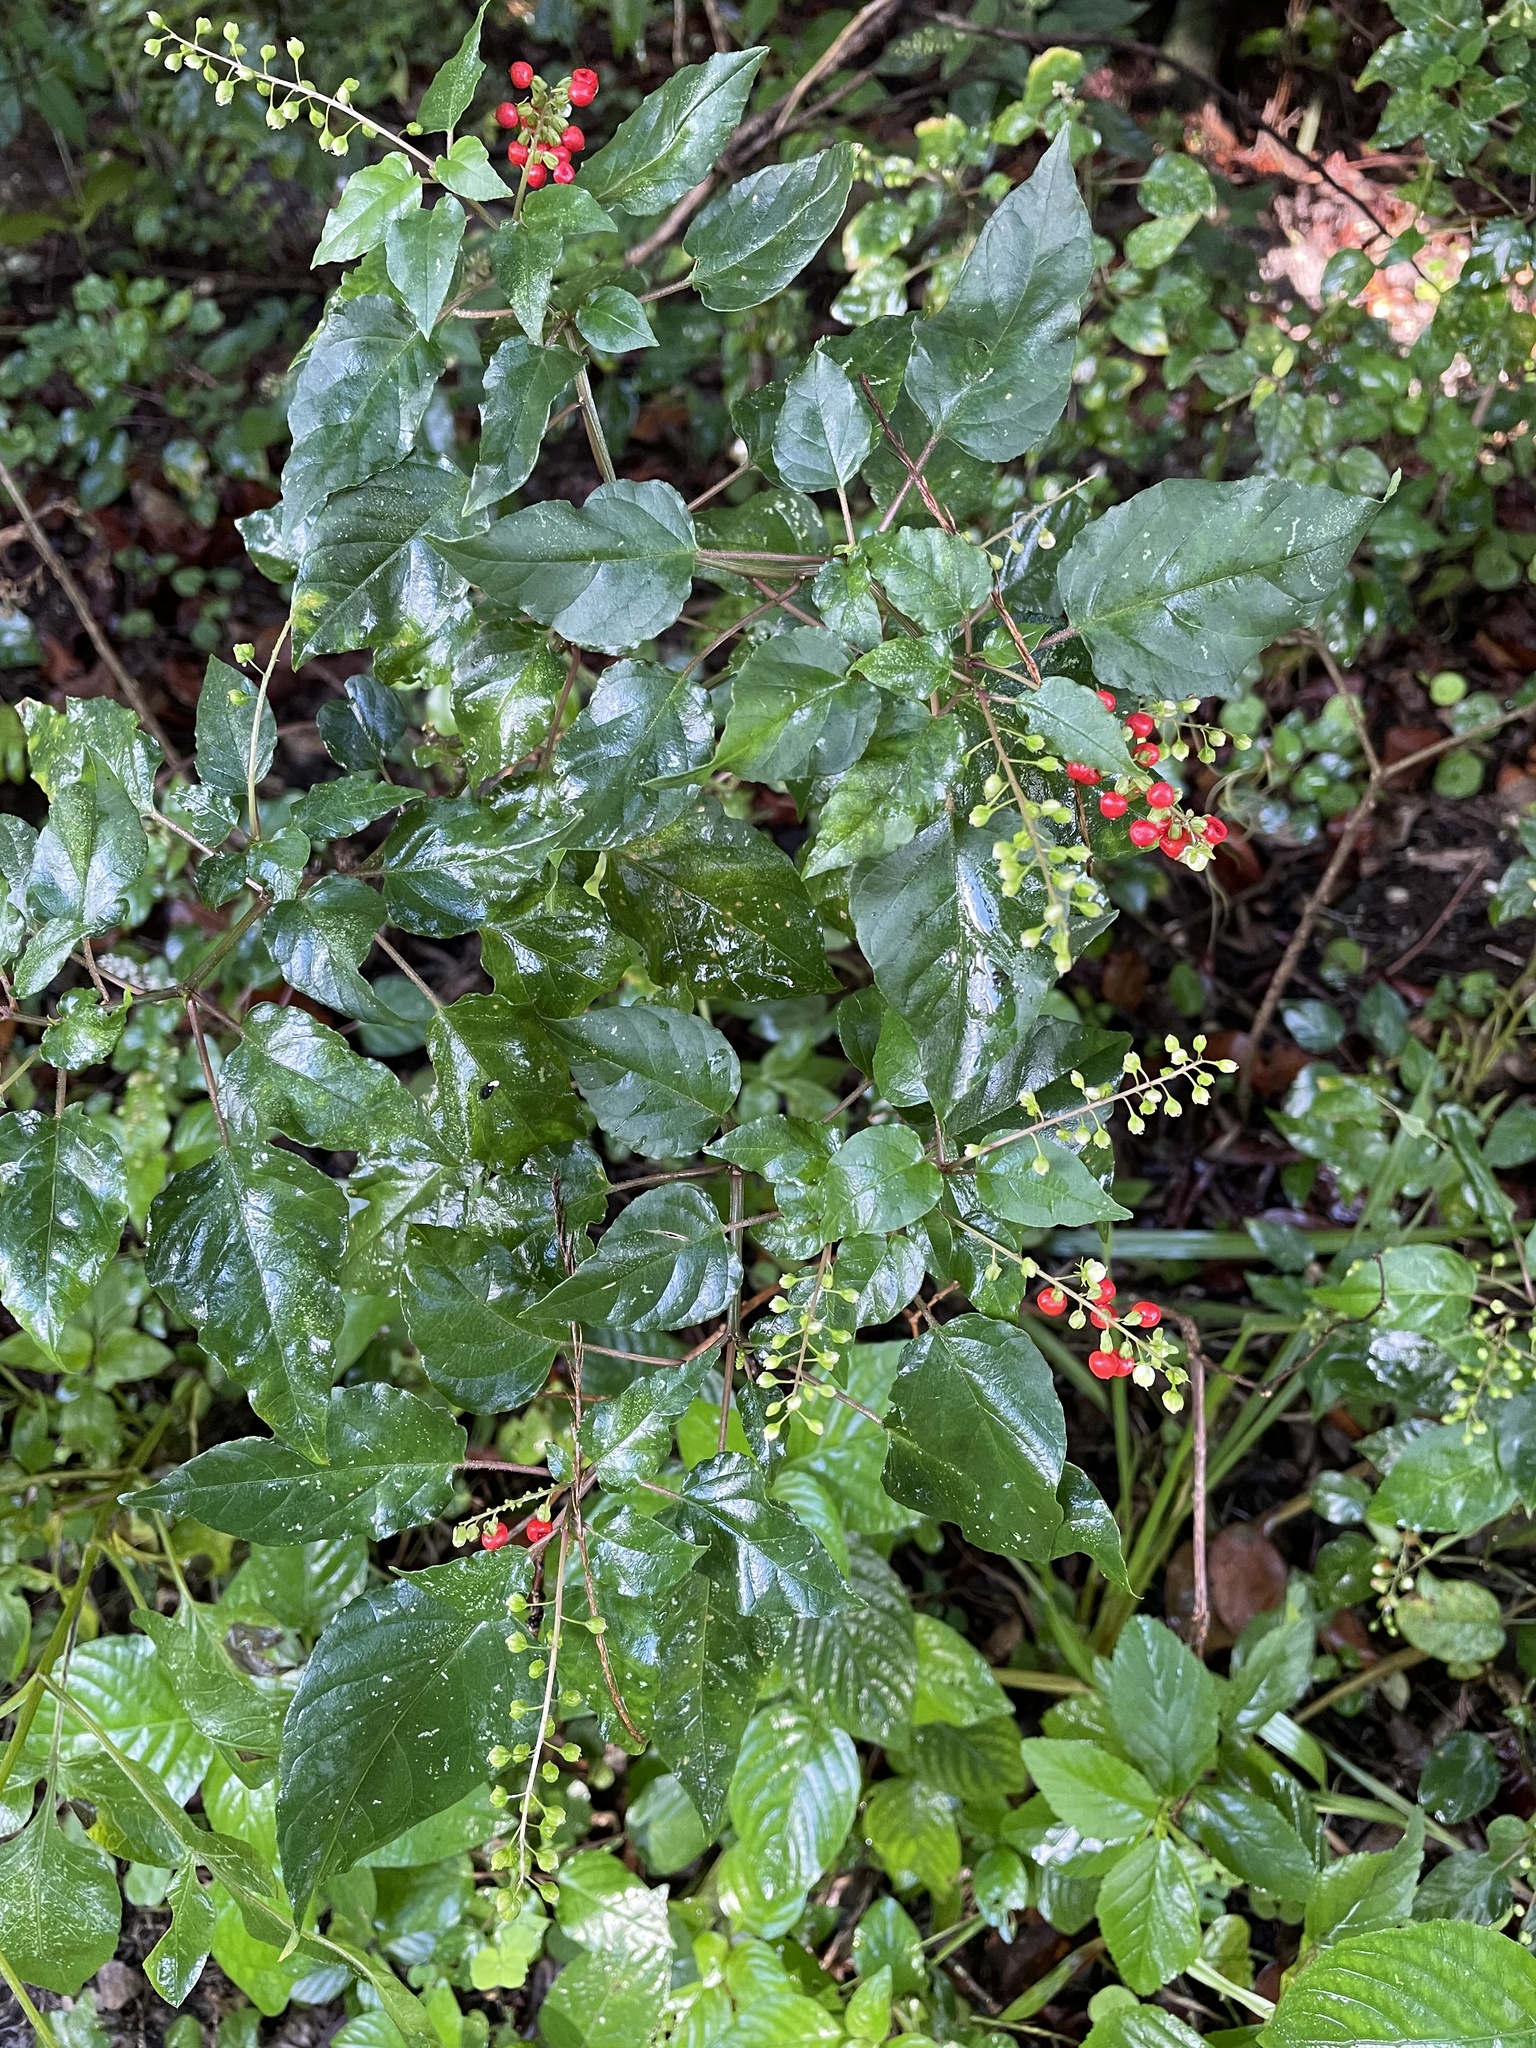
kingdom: Plantae
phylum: Tracheophyta
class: Magnoliopsida
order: Caryophyllales
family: Phytolaccaceae
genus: Rivina
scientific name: Rivina humilis
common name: Rougeplant
